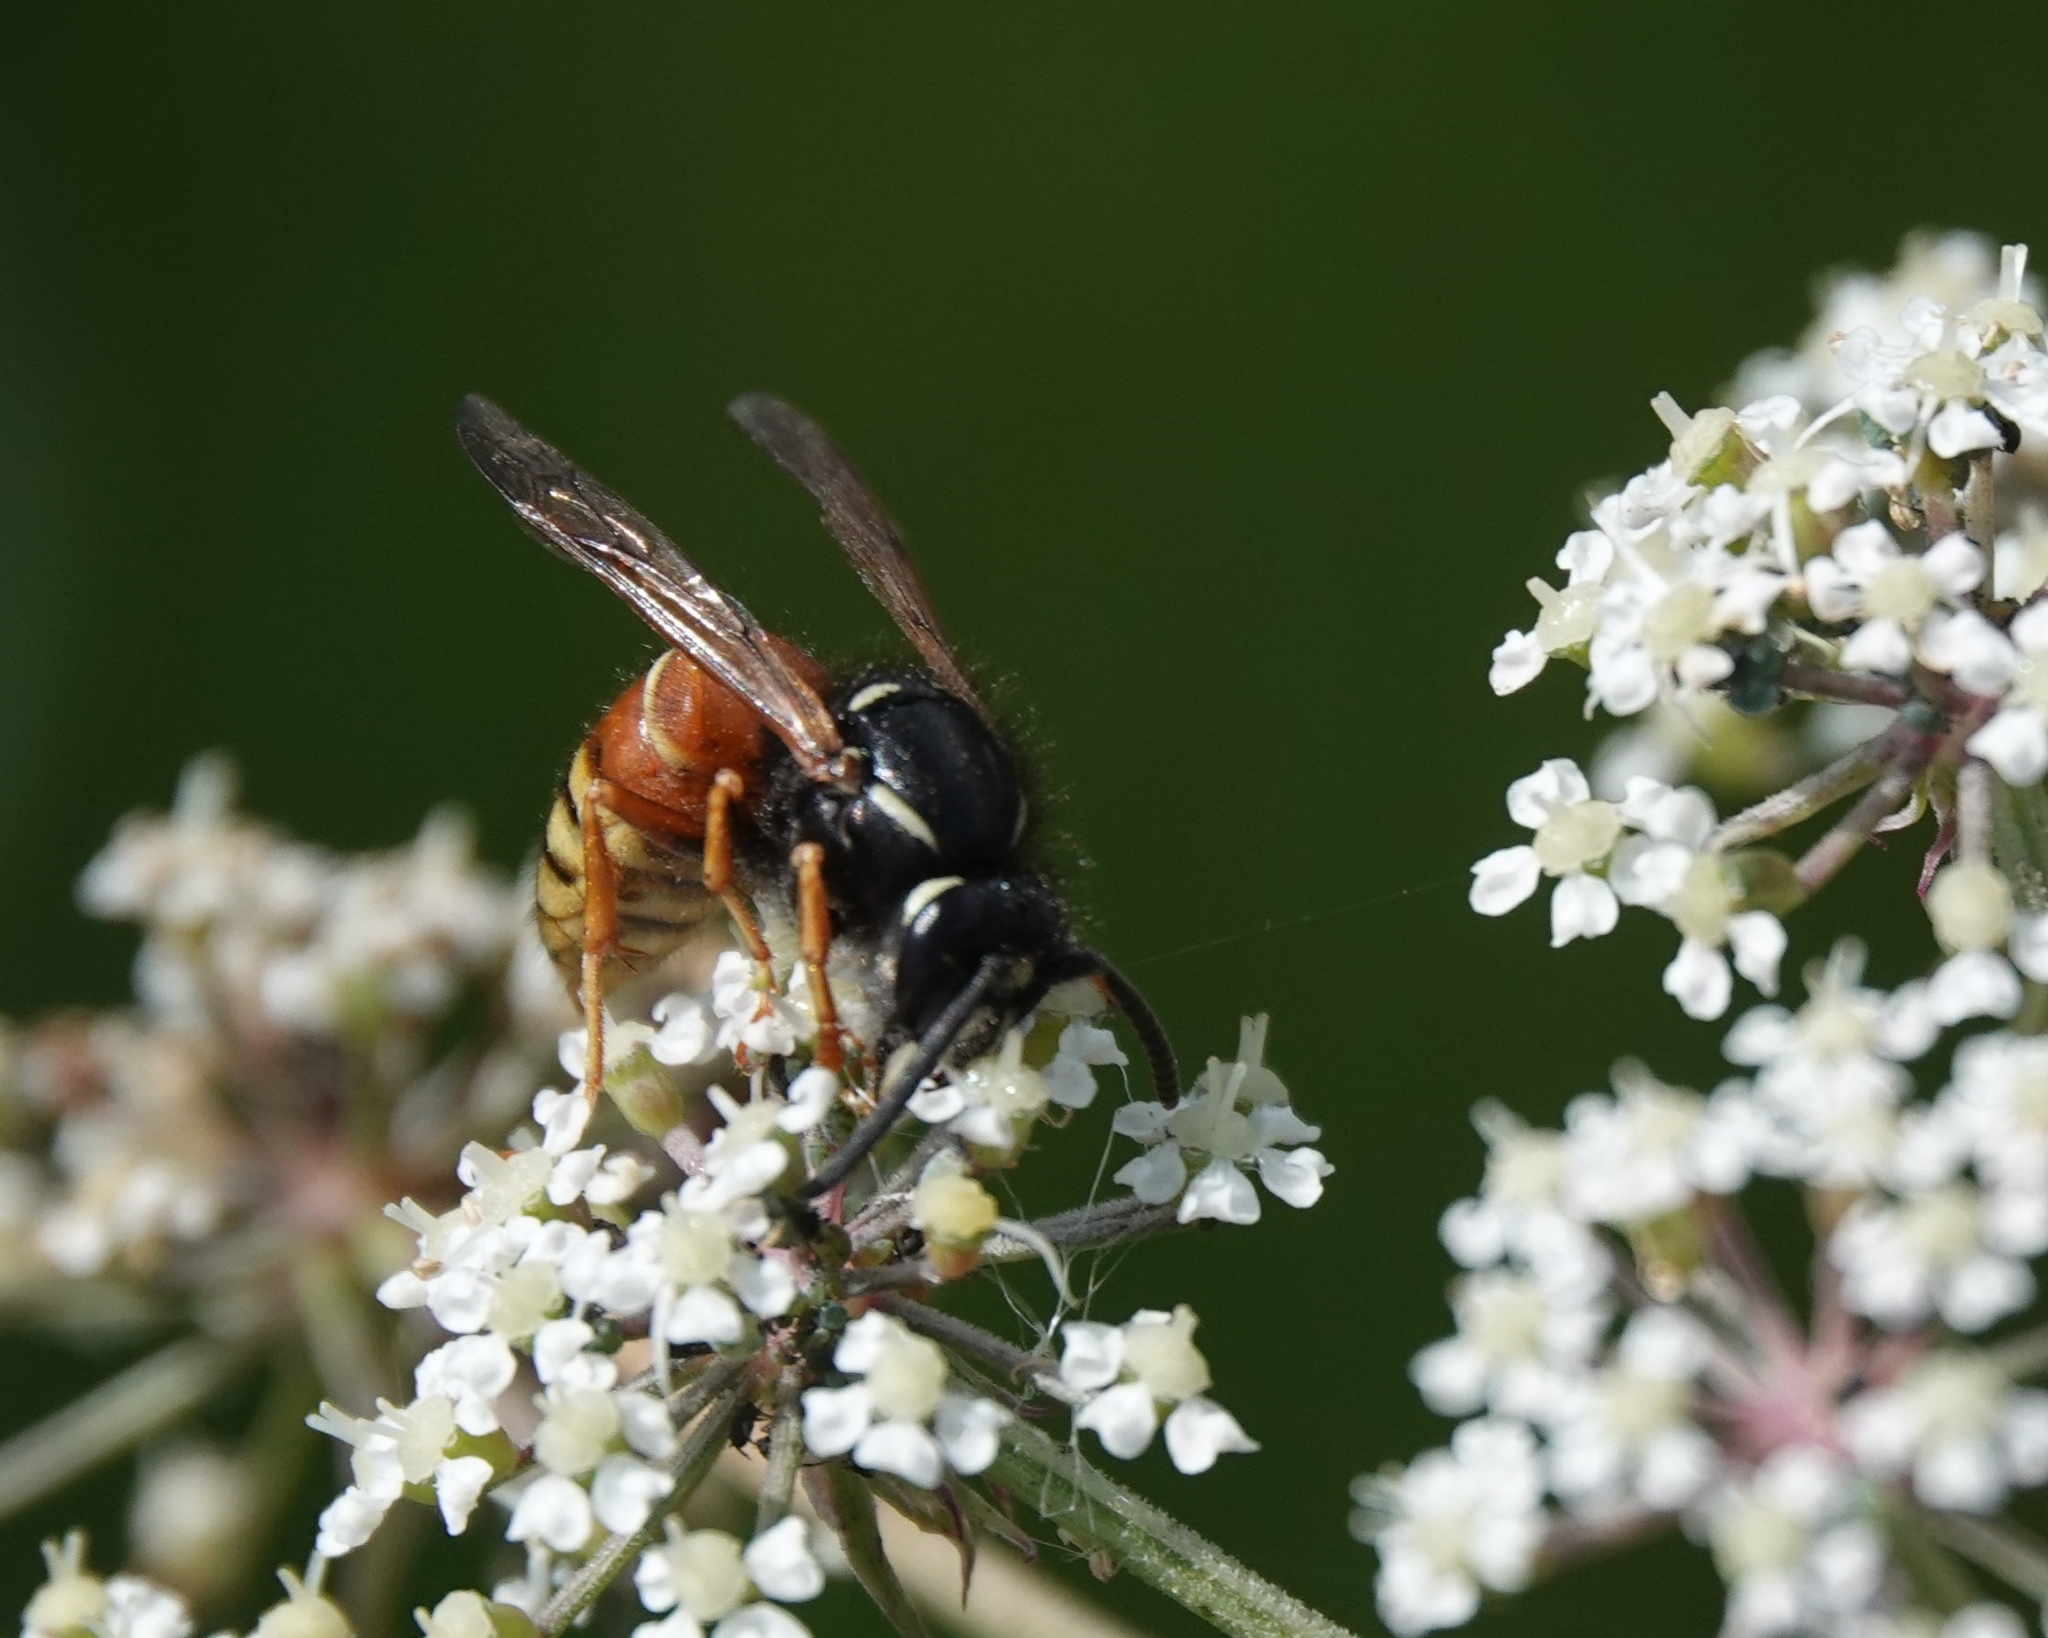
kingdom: Animalia
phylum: Arthropoda
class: Insecta
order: Hymenoptera
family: Vespidae
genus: Vespula
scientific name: Vespula rufa
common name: Red wasp
